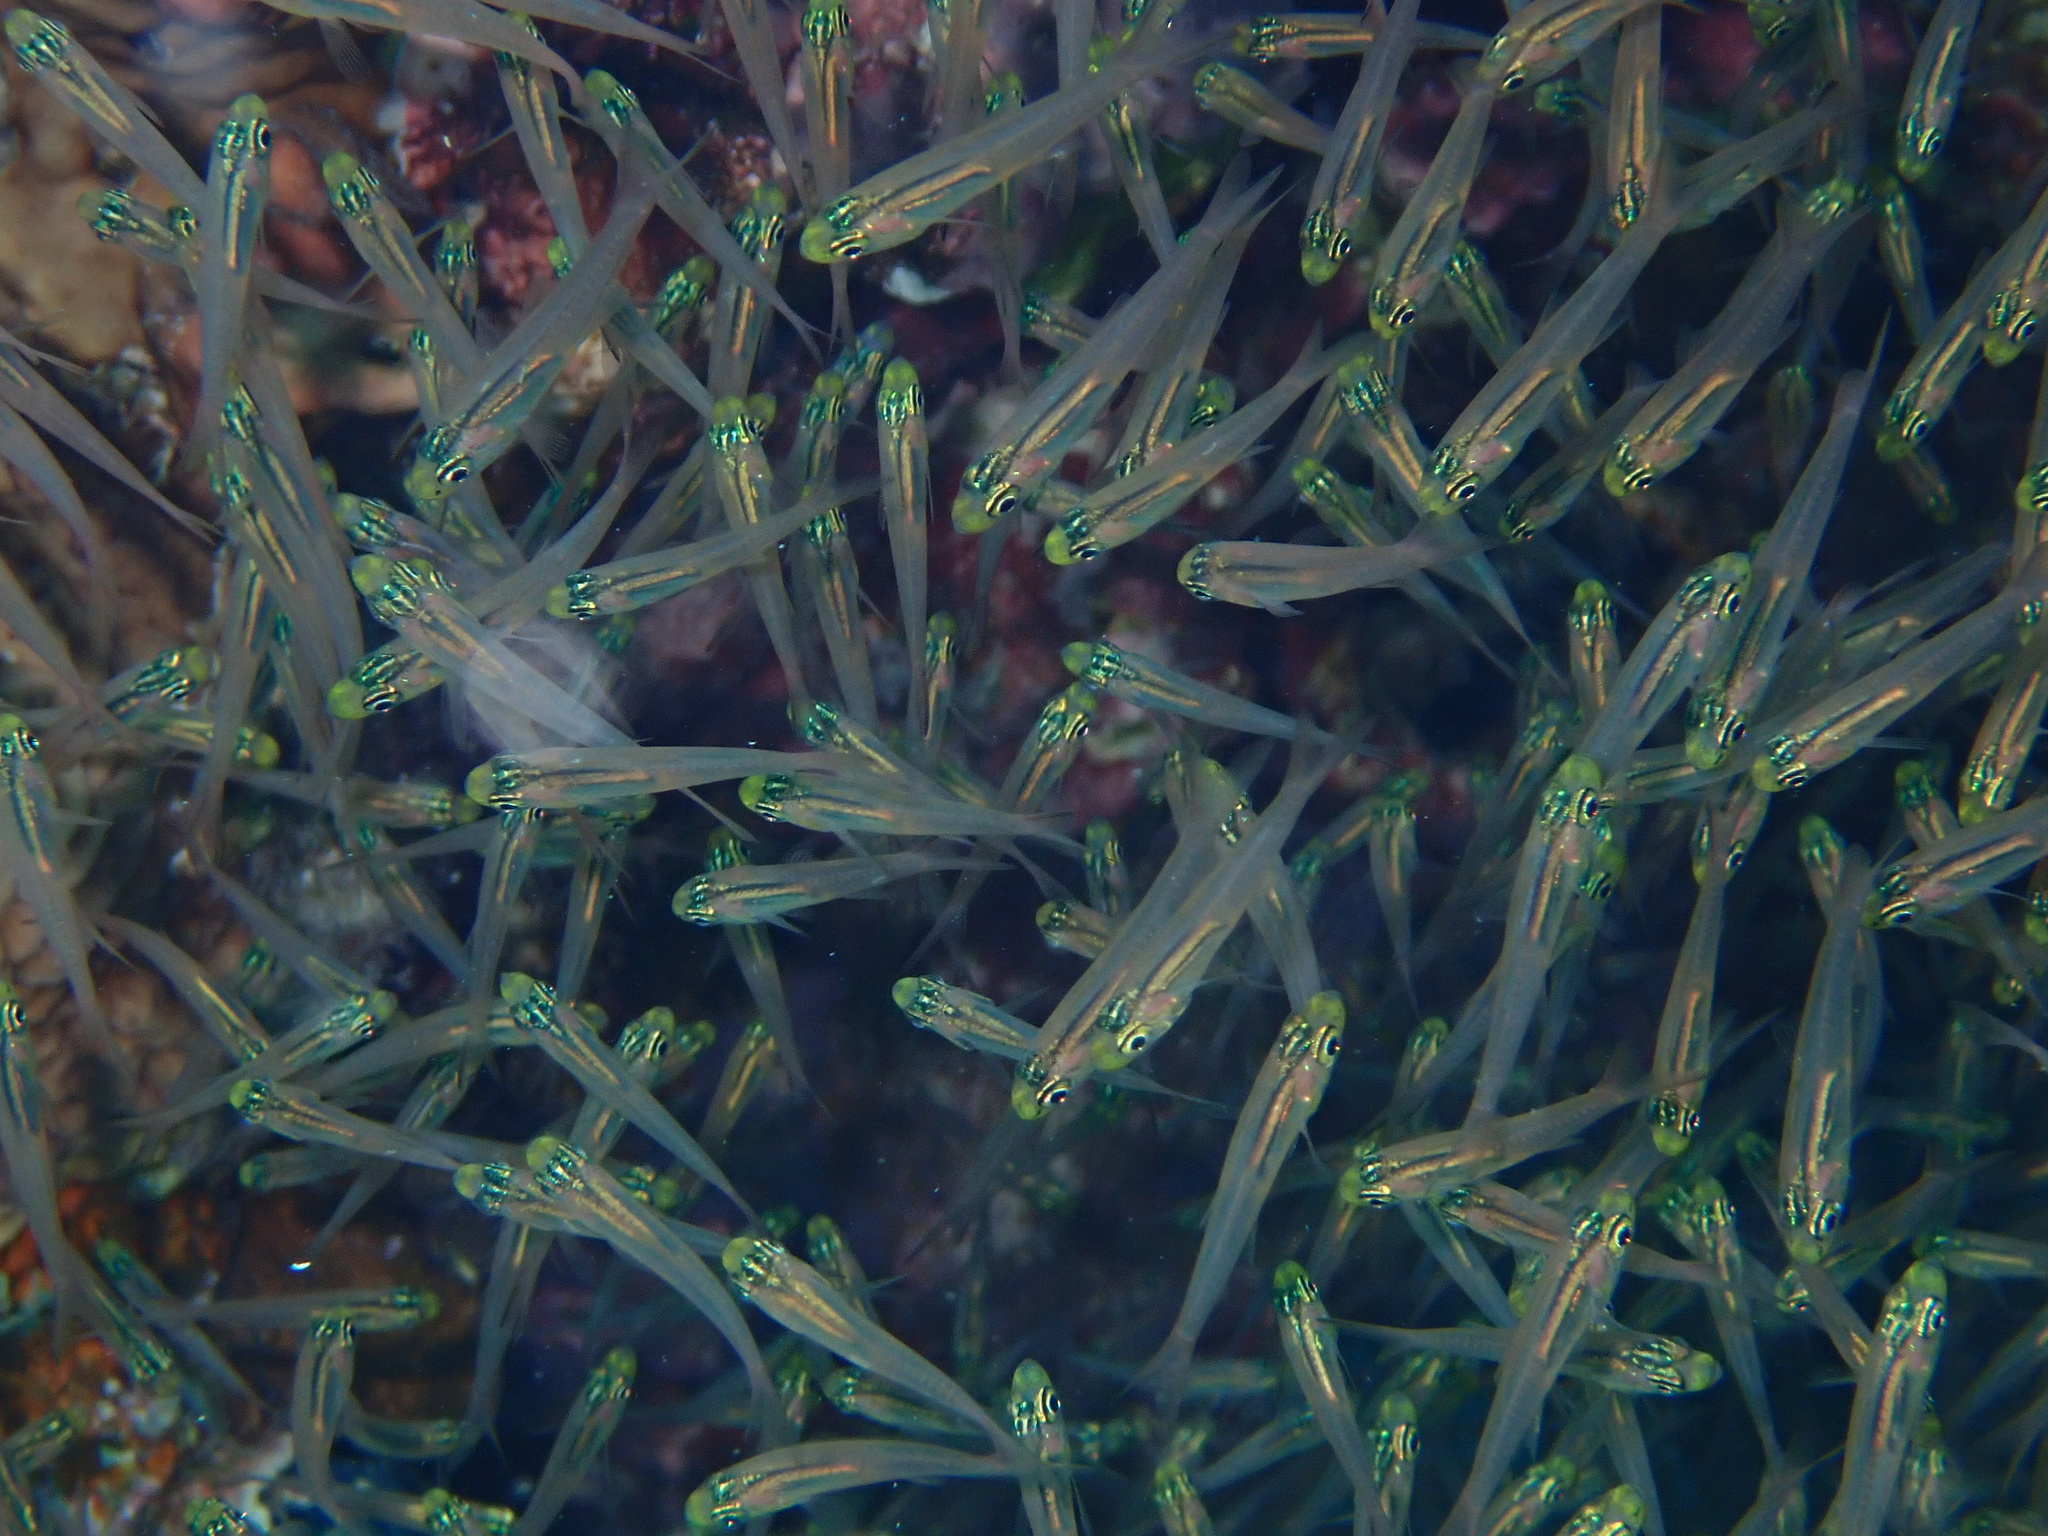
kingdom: Animalia
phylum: Chordata
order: Perciformes
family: Pempheridae
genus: Parapriacanthus
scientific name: Parapriacanthus guentheri
